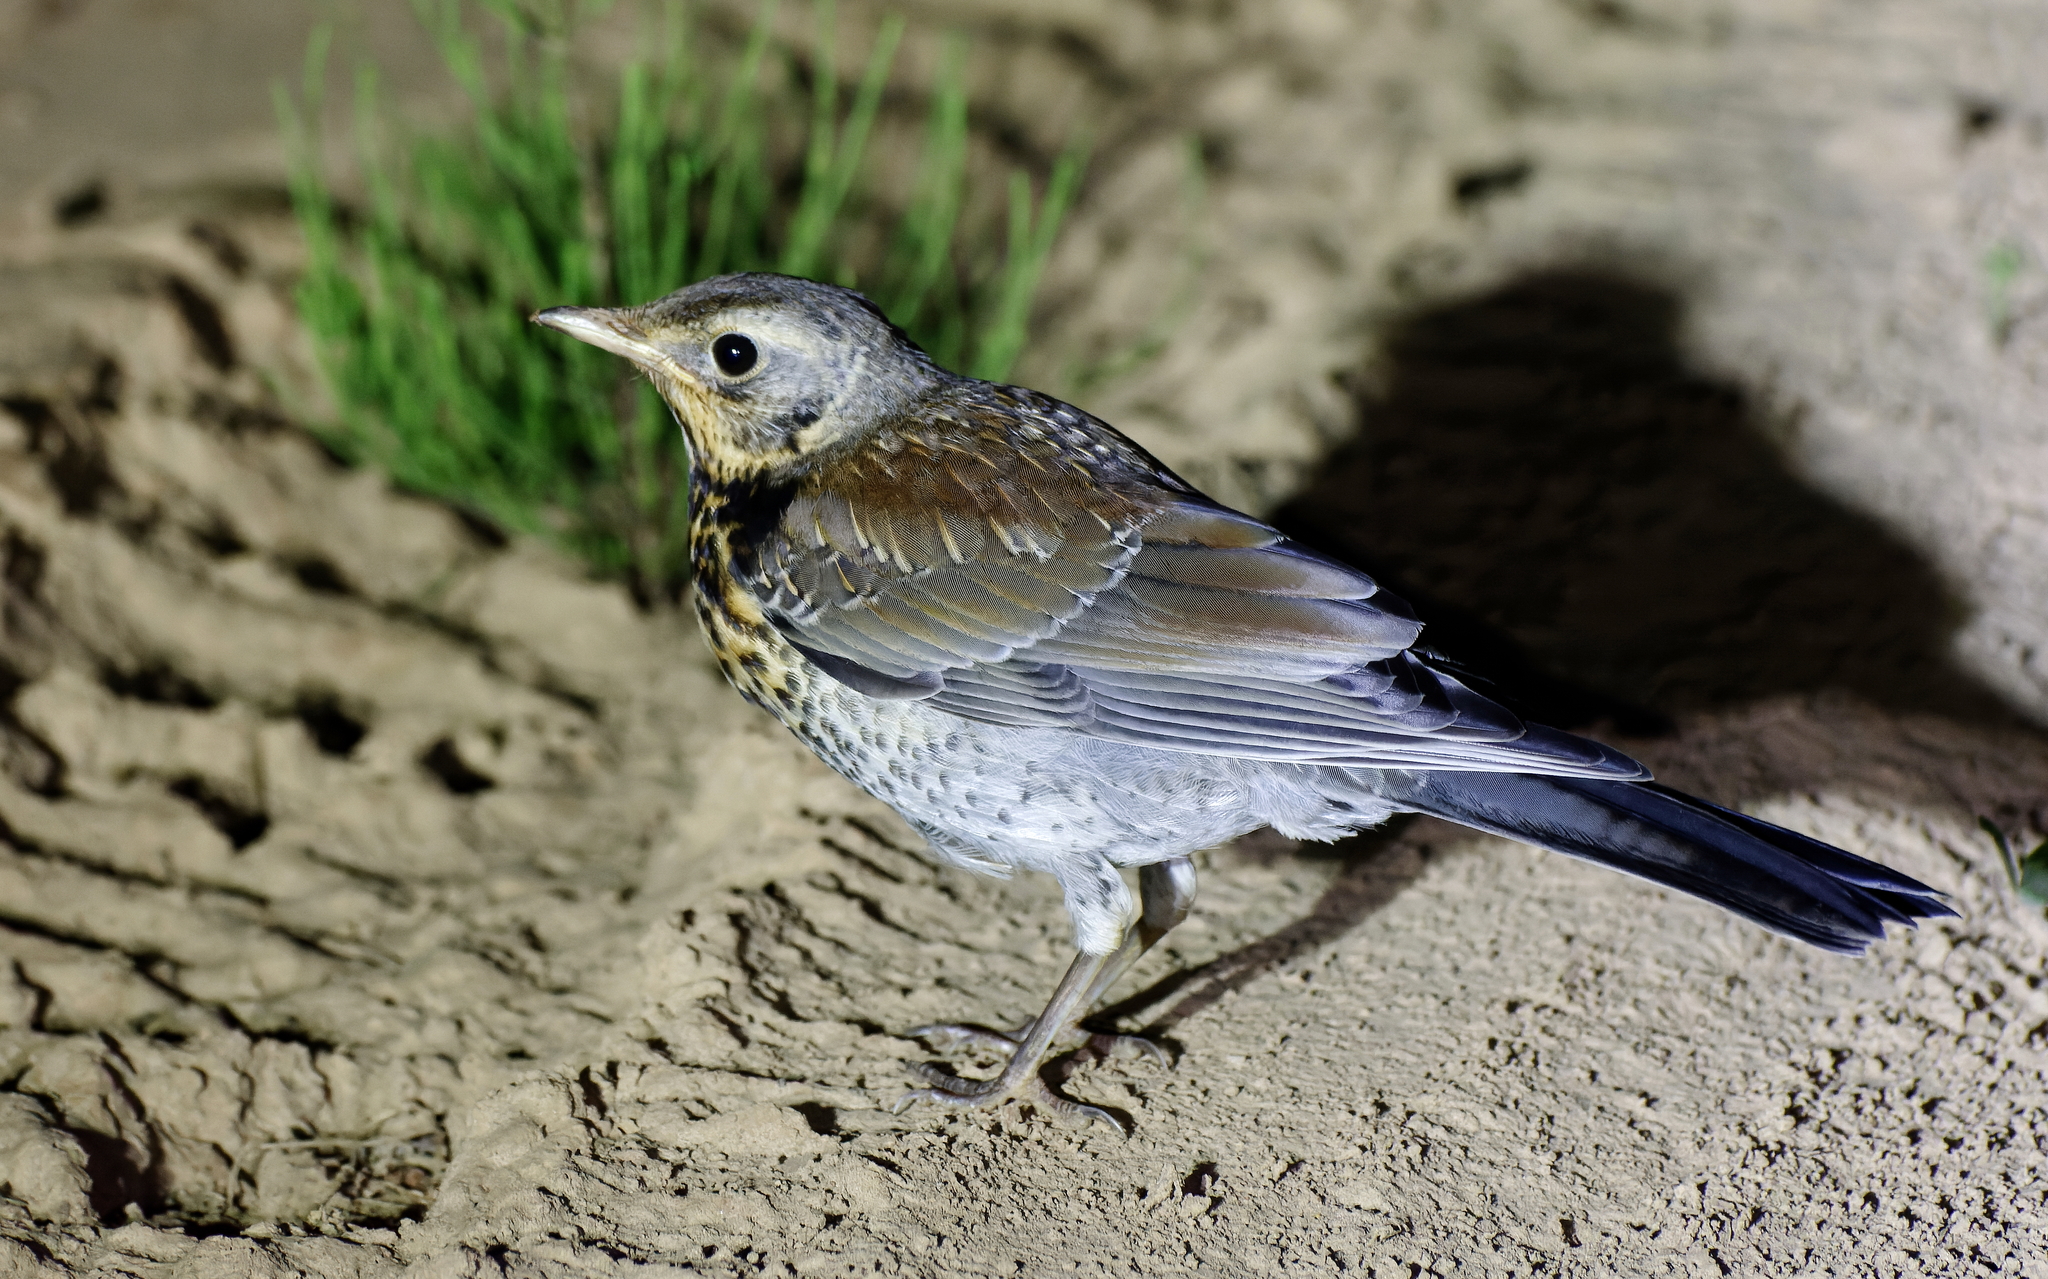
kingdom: Animalia
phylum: Chordata
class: Aves
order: Passeriformes
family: Turdidae
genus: Turdus
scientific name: Turdus pilaris
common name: Fieldfare
